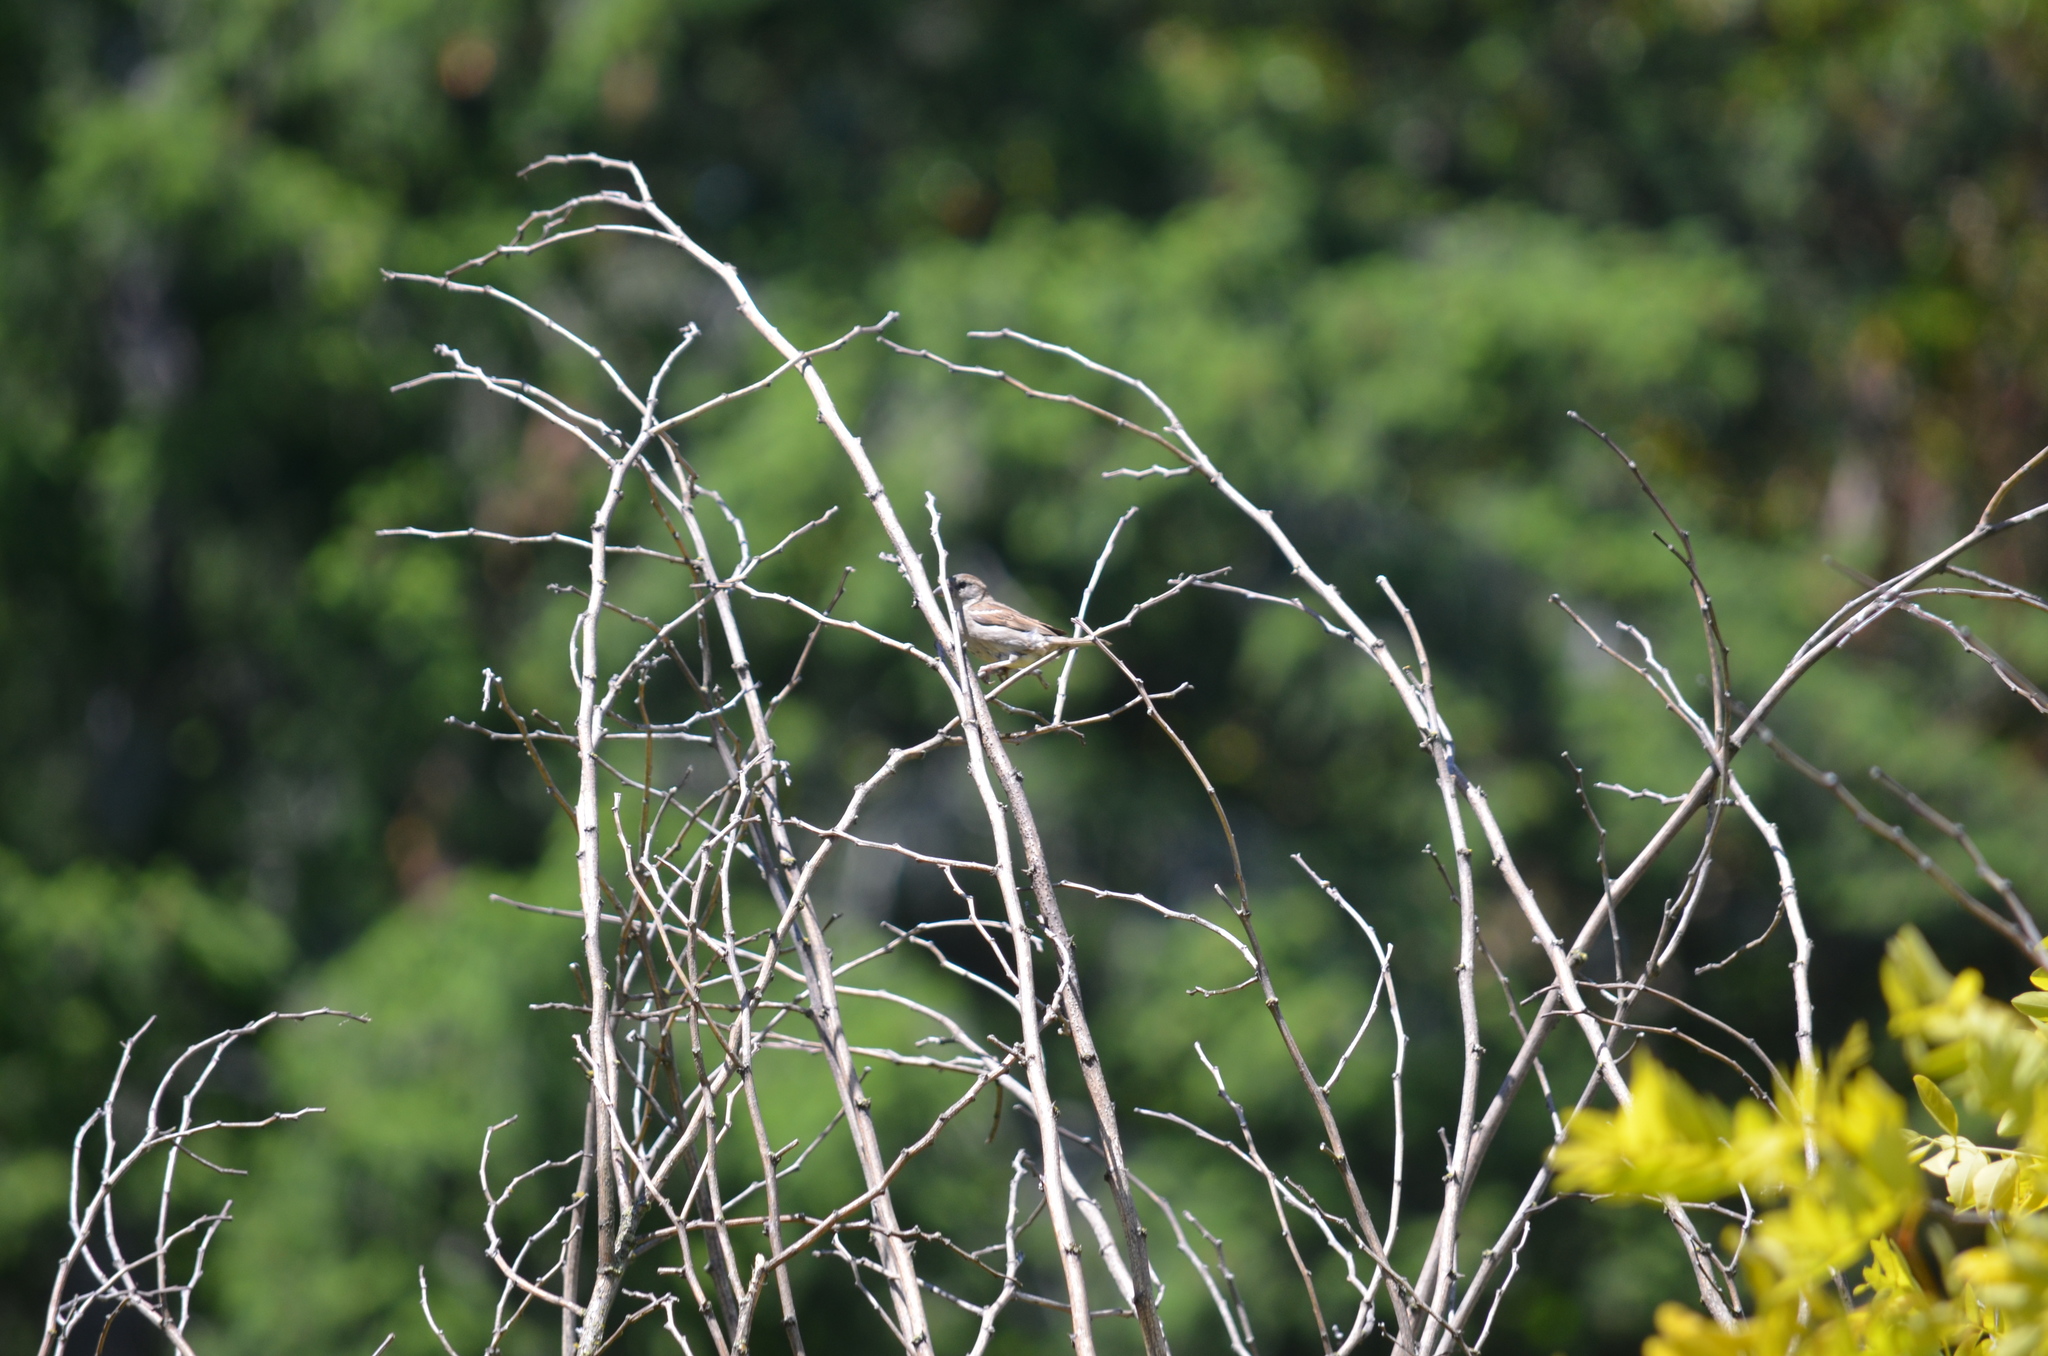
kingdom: Animalia
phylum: Chordata
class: Aves
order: Passeriformes
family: Passeridae
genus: Passer
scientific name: Passer domesticus
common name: House sparrow
